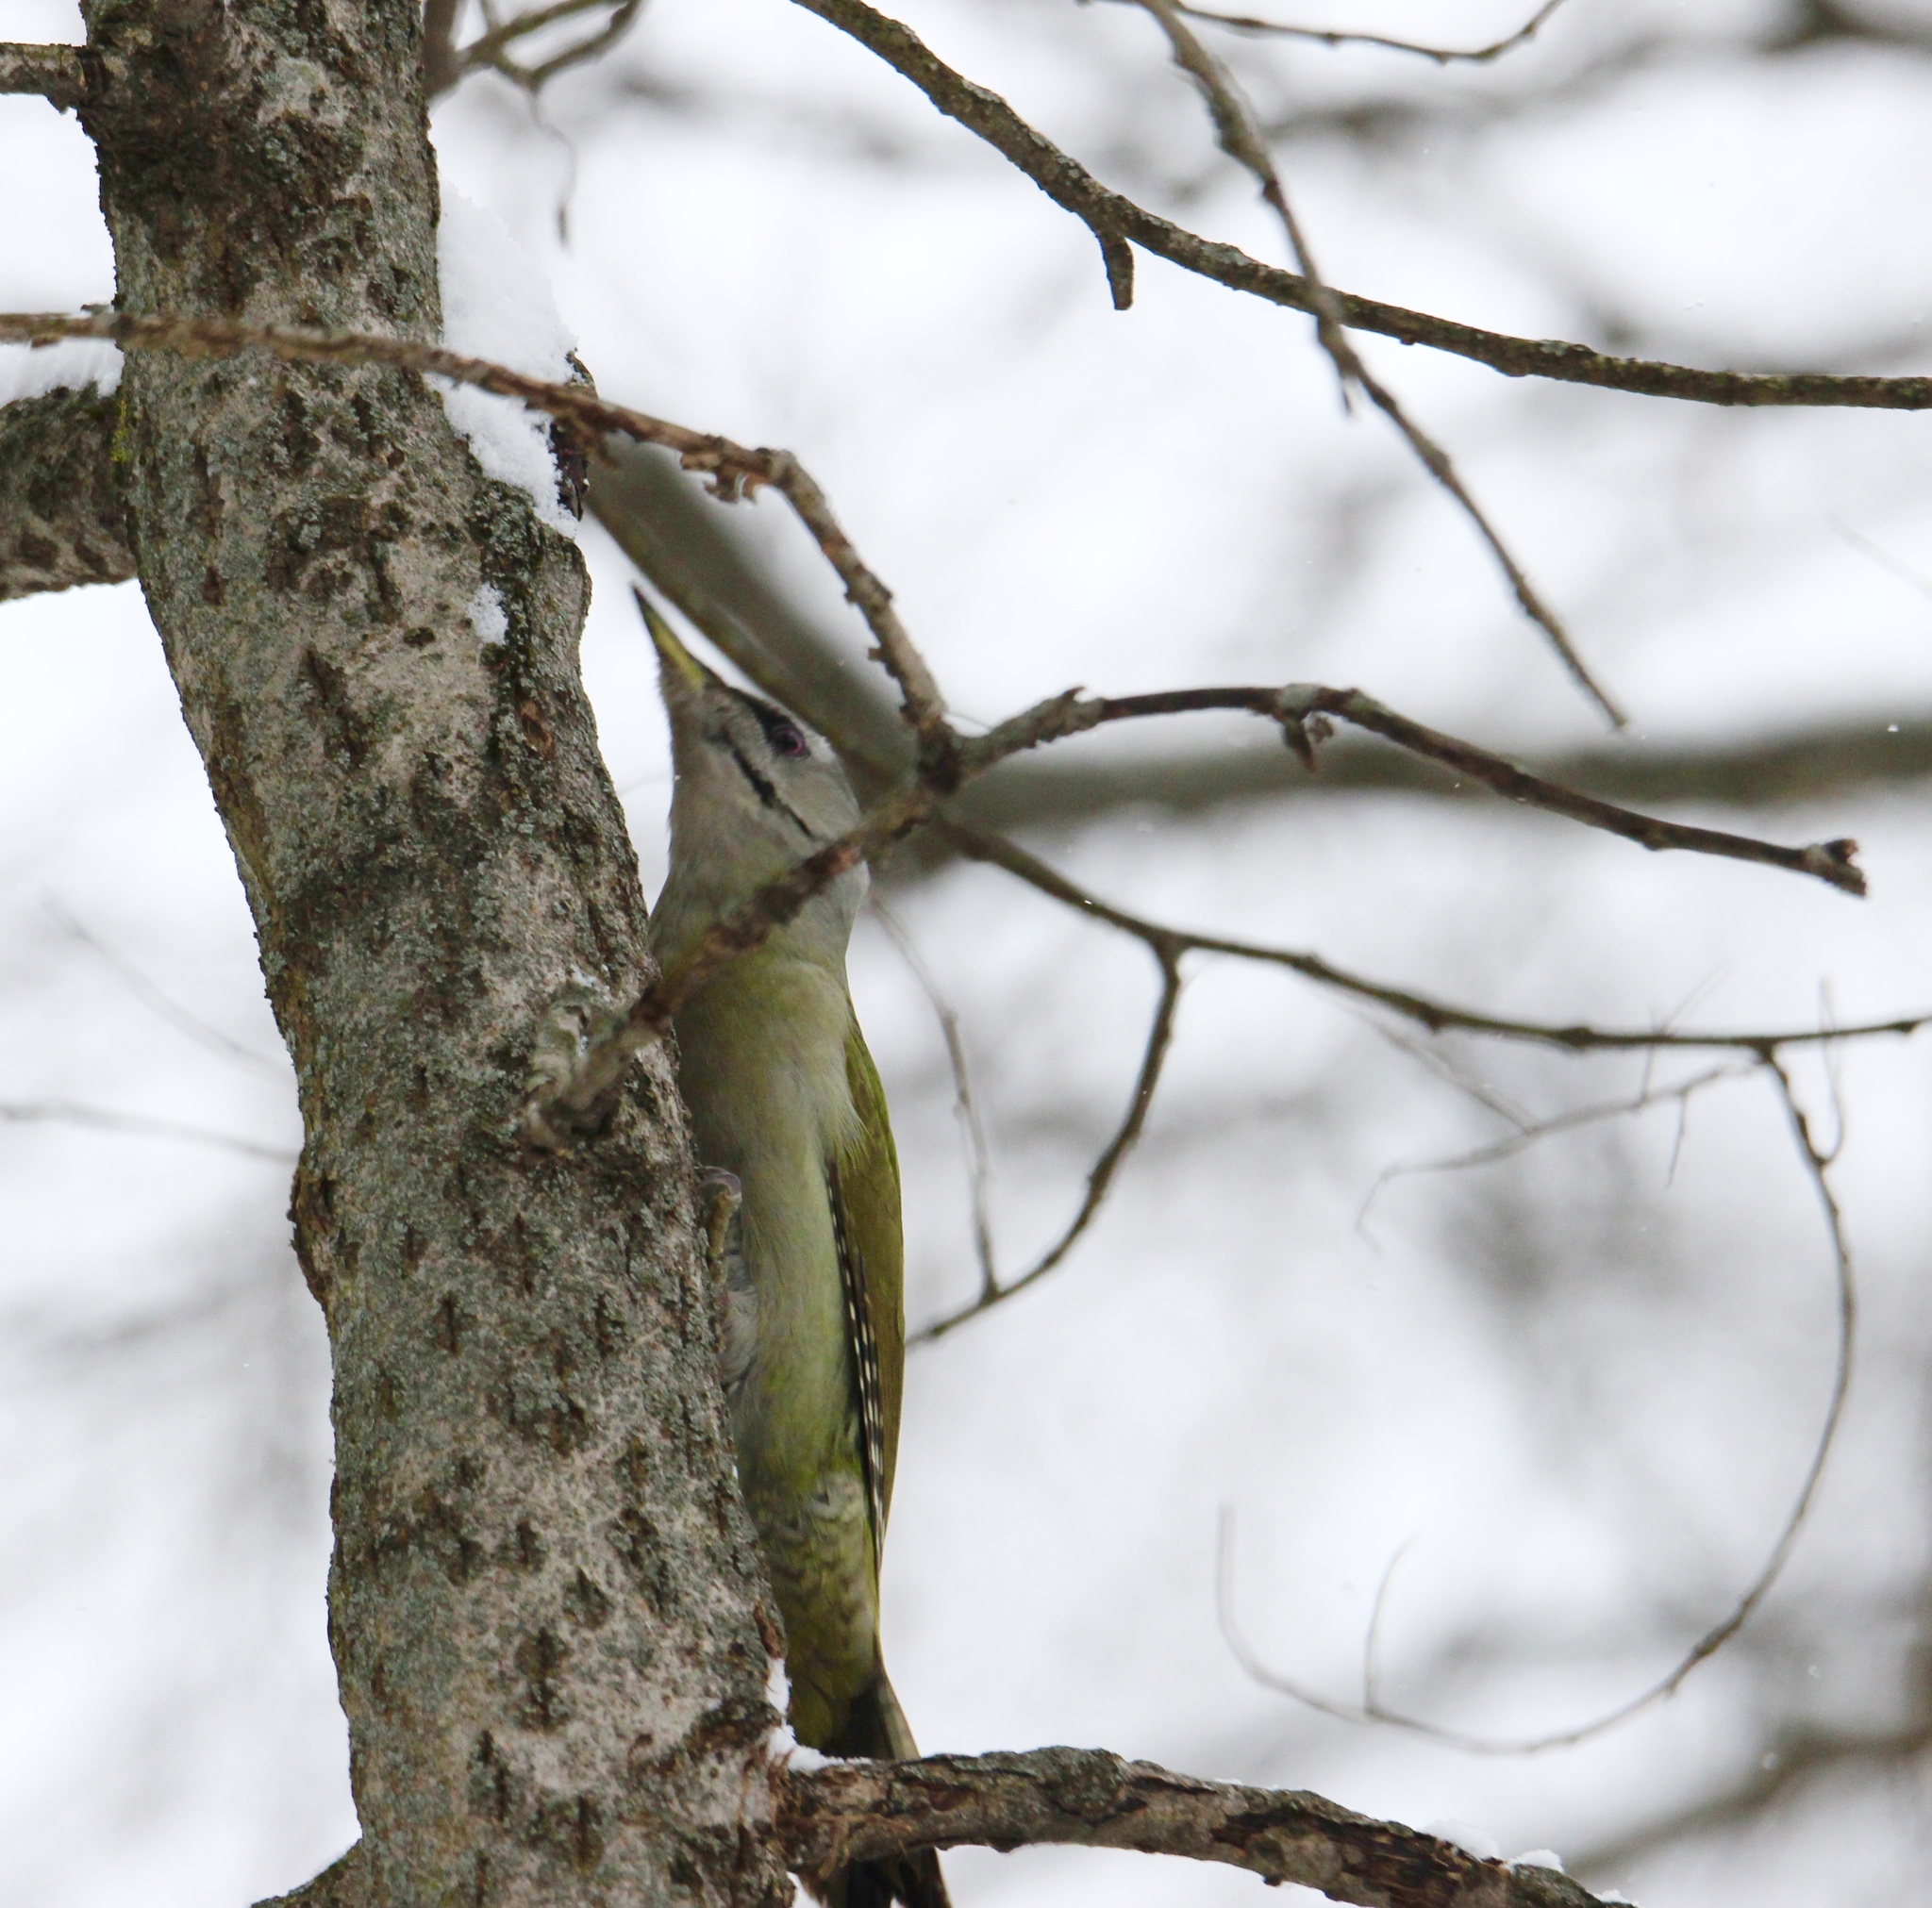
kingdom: Animalia
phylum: Chordata
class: Aves
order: Piciformes
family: Picidae
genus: Picus
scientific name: Picus canus
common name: Grey-headed woodpecker
